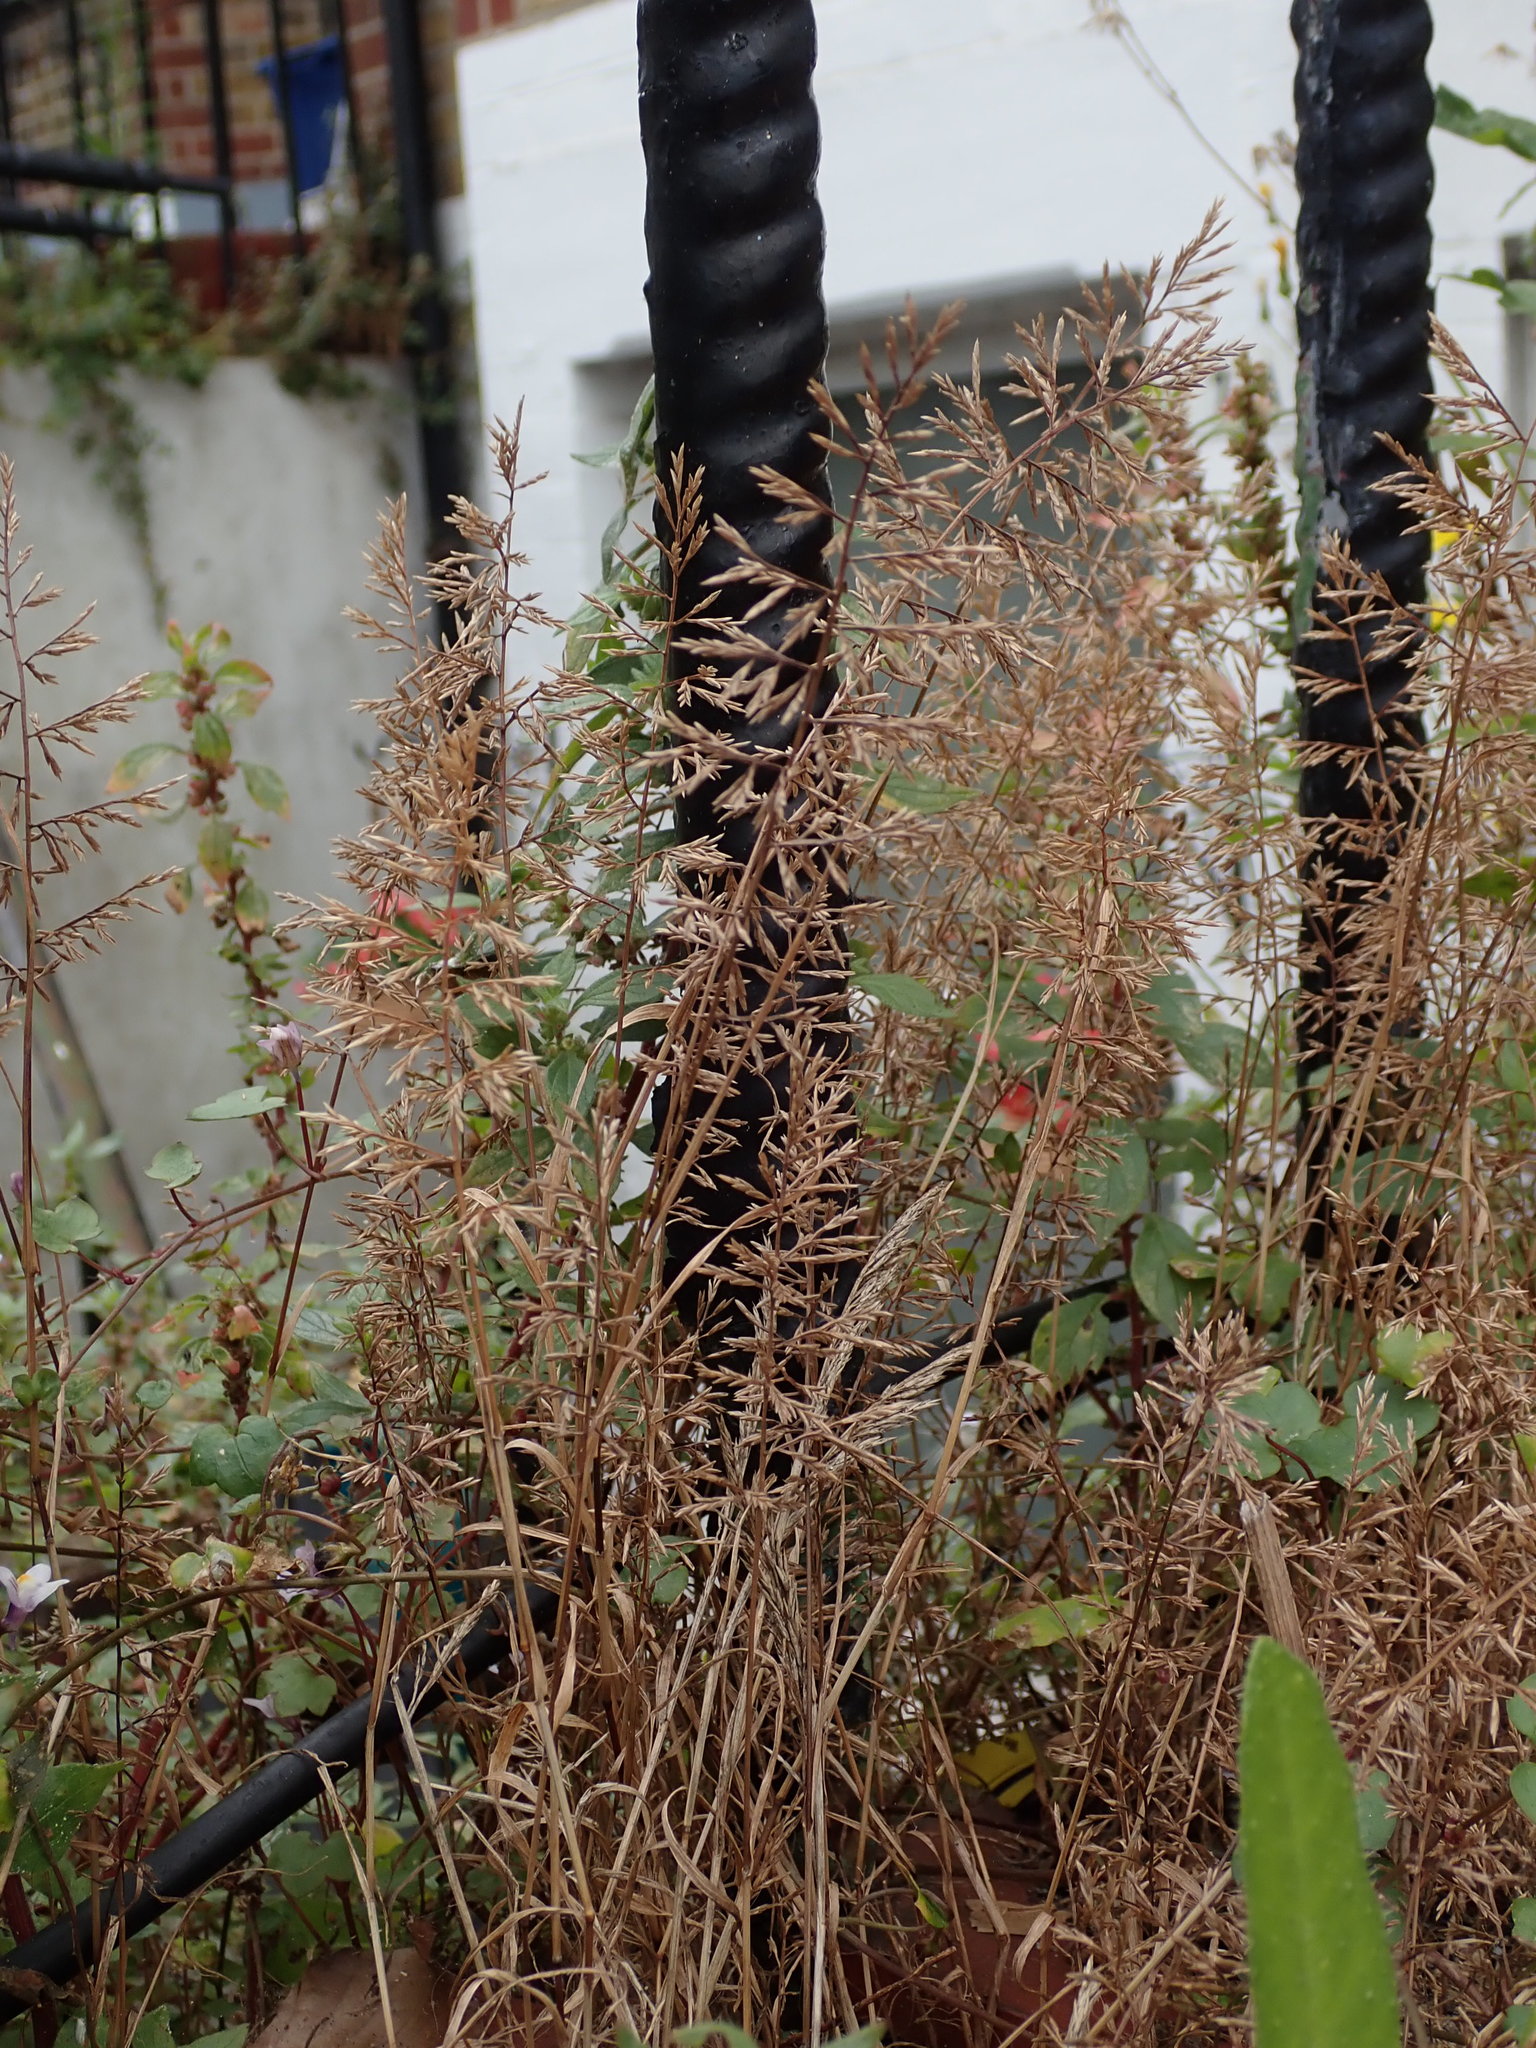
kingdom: Plantae
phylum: Tracheophyta
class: Liliopsida
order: Poales
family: Poaceae
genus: Catapodium
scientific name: Catapodium rigidum
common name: Fern-grass
